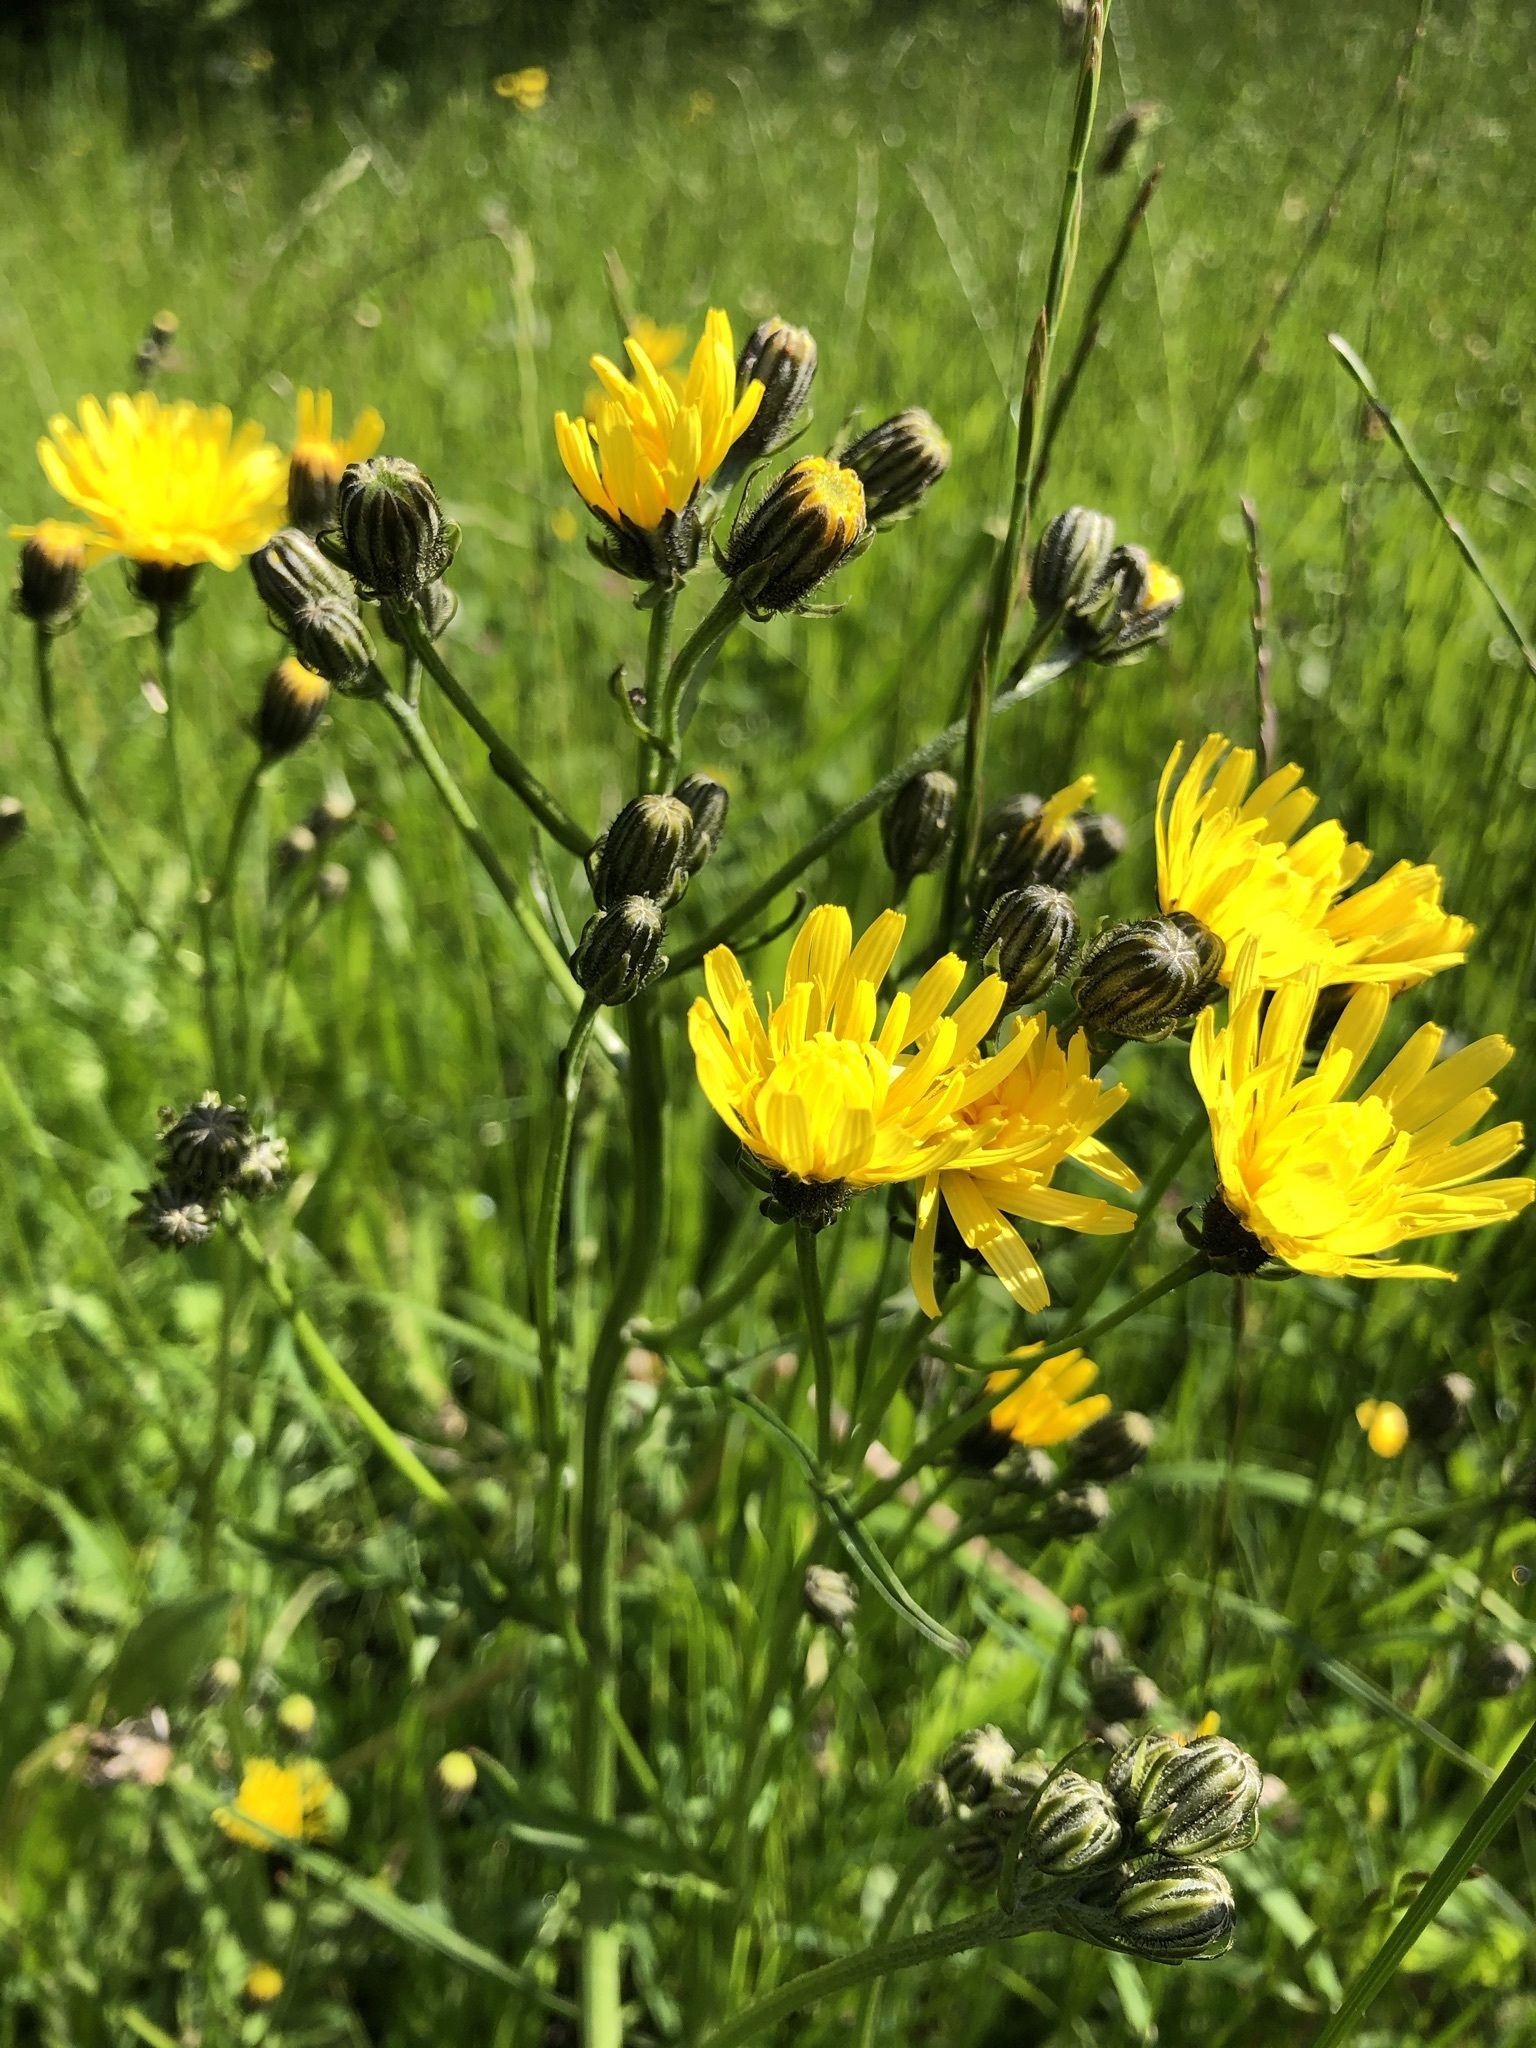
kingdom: Plantae
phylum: Tracheophyta
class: Magnoliopsida
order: Asterales
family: Asteraceae
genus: Crepis
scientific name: Crepis biennis
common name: Rough hawk's-beard
